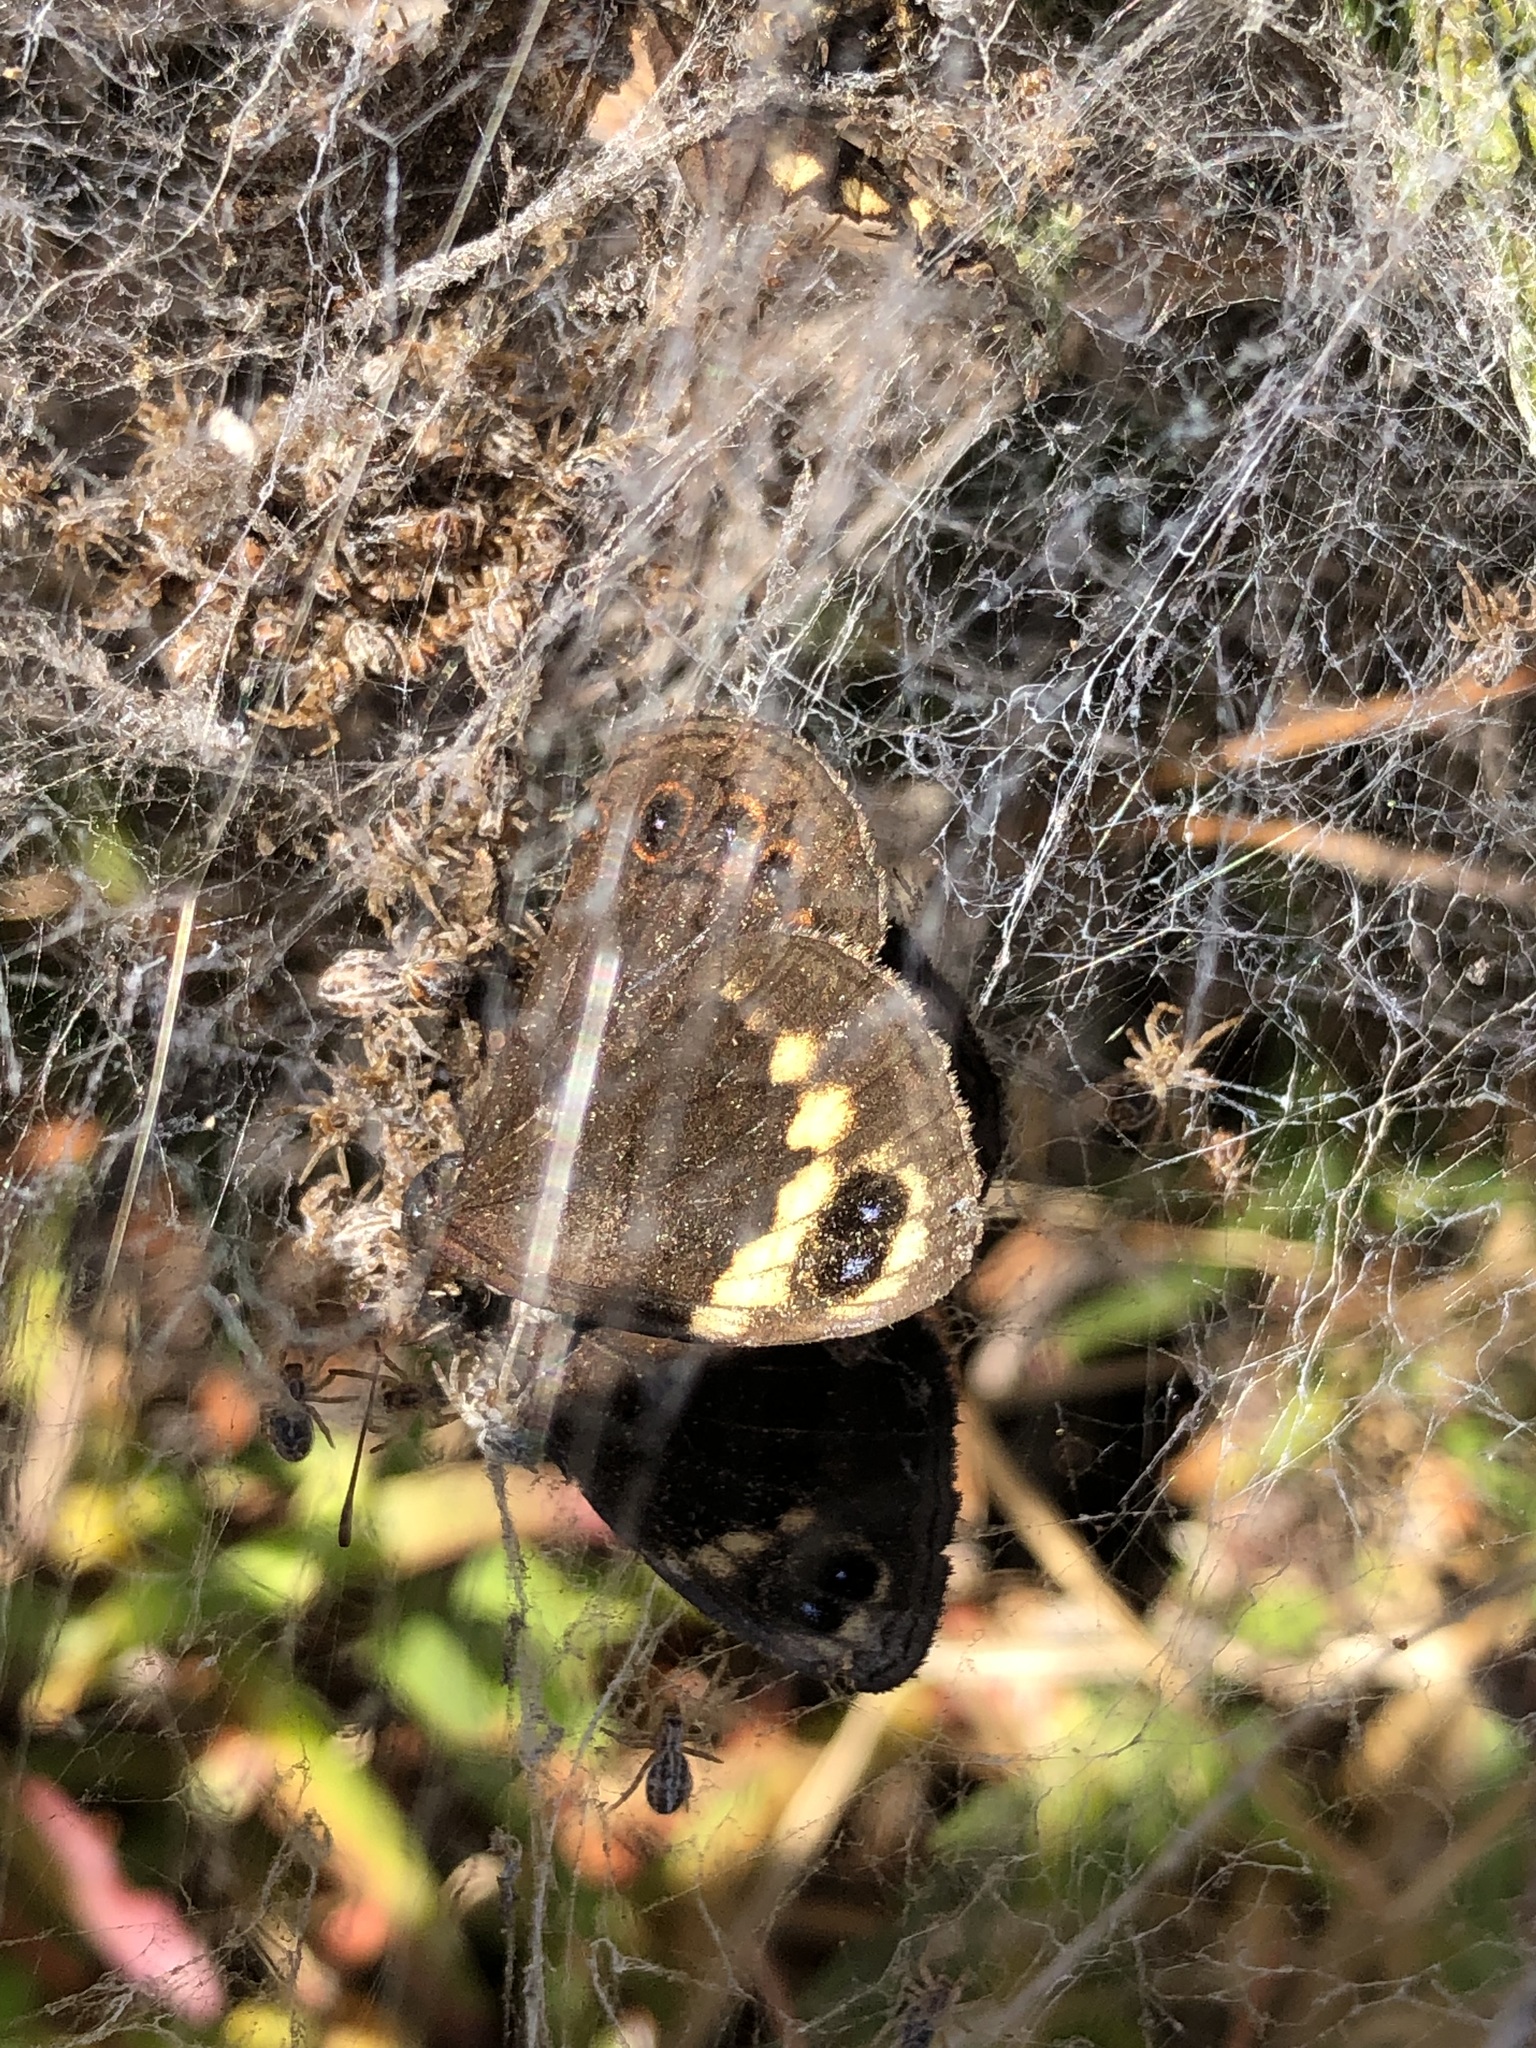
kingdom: Animalia
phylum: Arthropoda
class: Insecta
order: Lepidoptera
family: Nymphalidae
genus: Dira
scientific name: Dira clytus
